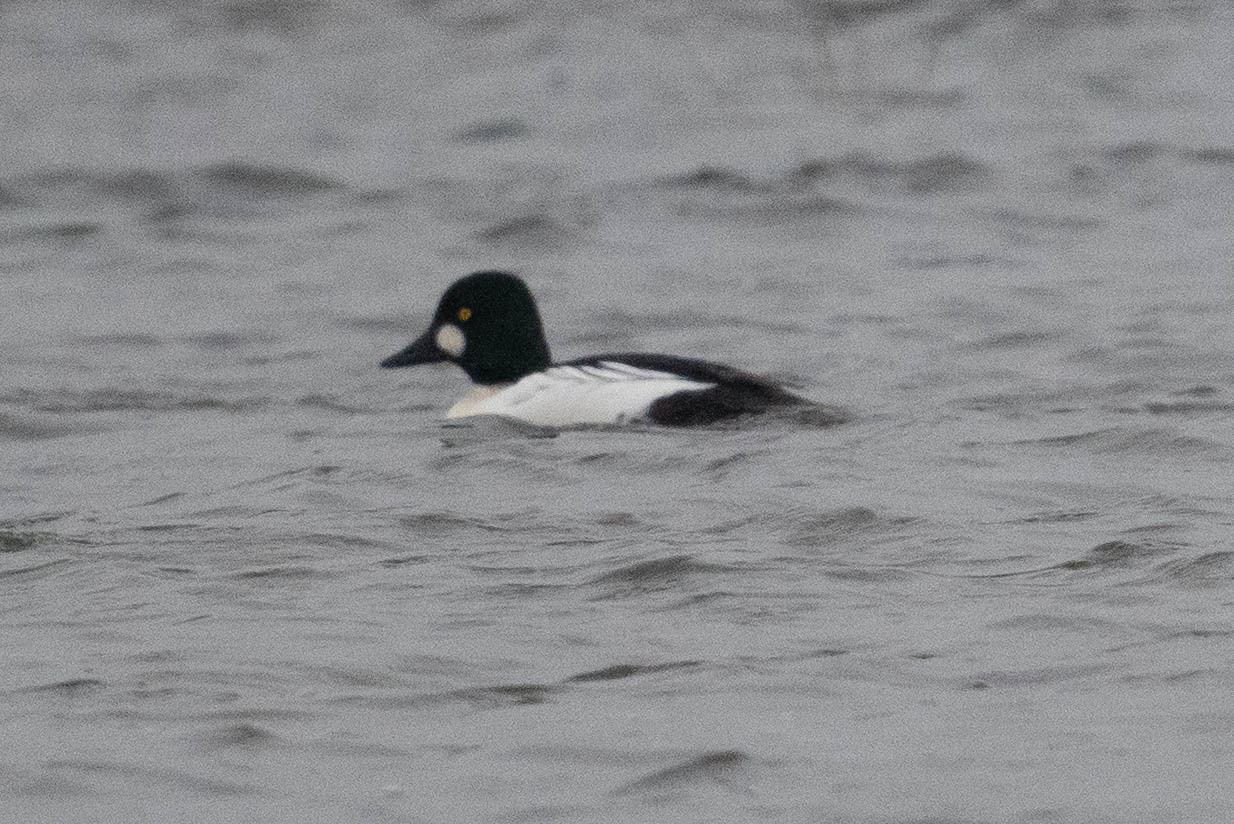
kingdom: Animalia
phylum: Chordata
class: Aves
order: Anseriformes
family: Anatidae
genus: Bucephala
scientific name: Bucephala clangula
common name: Common goldeneye
